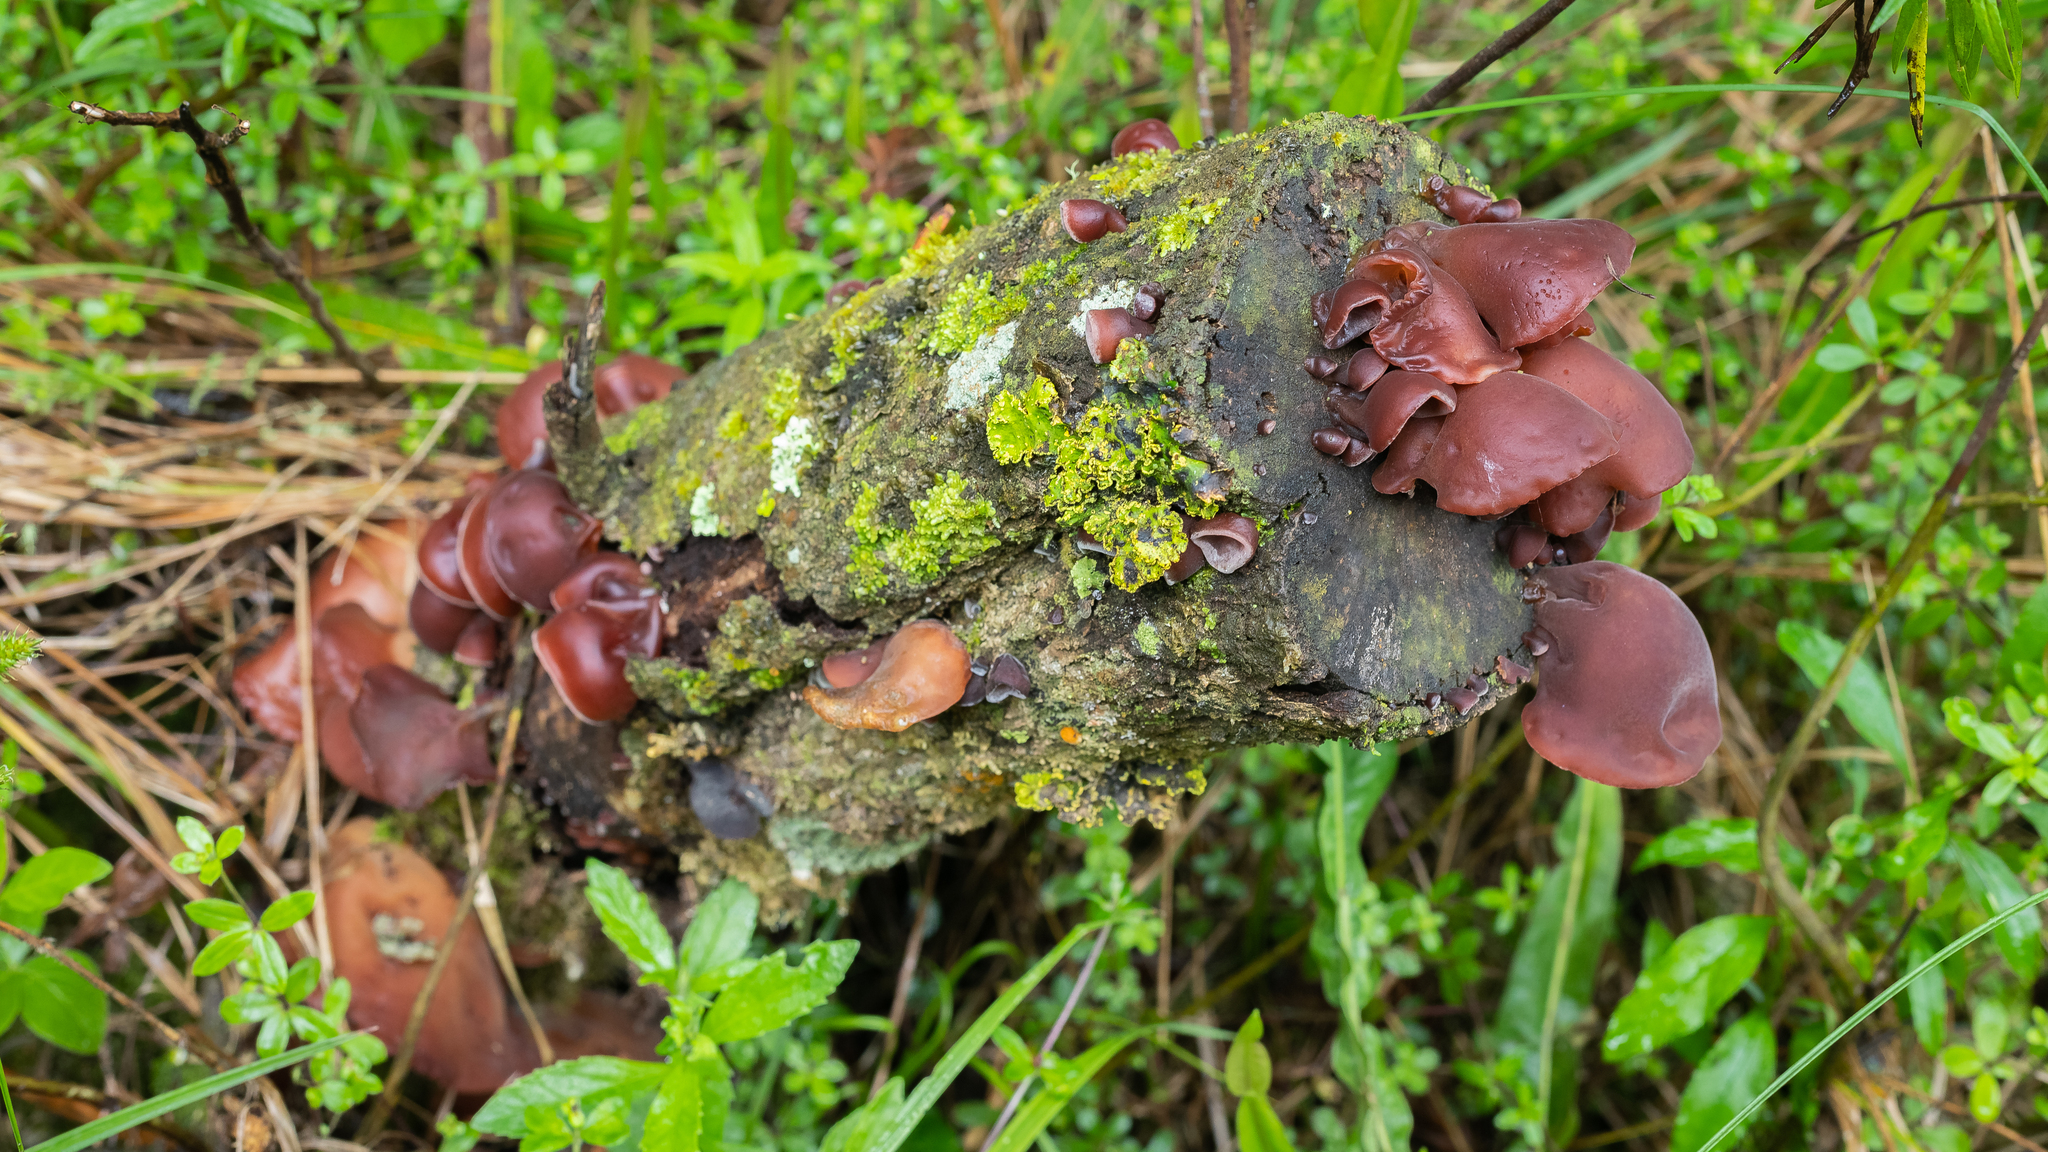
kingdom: Fungi
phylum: Basidiomycota
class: Agaricomycetes
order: Auriculariales
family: Auriculariaceae
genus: Auricularia
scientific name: Auricularia fuscosuccinea
